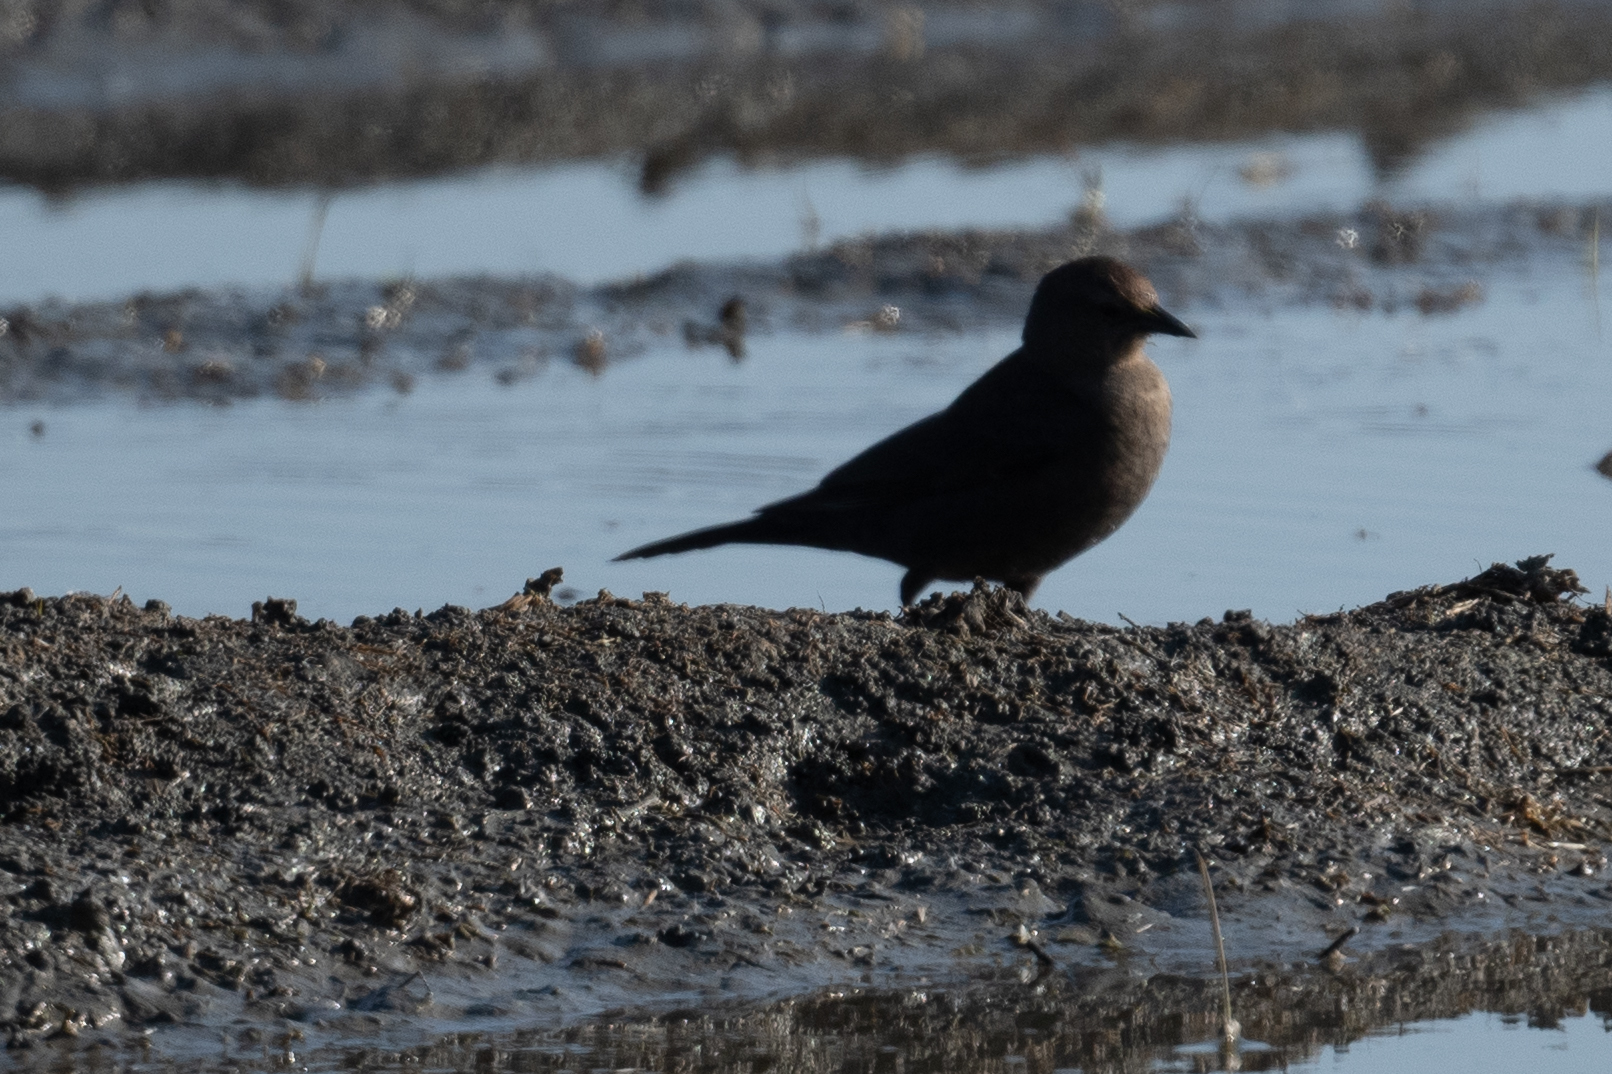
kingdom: Animalia
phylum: Chordata
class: Aves
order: Passeriformes
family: Icteridae
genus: Euphagus
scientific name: Euphagus cyanocephalus
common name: Brewer's blackbird
